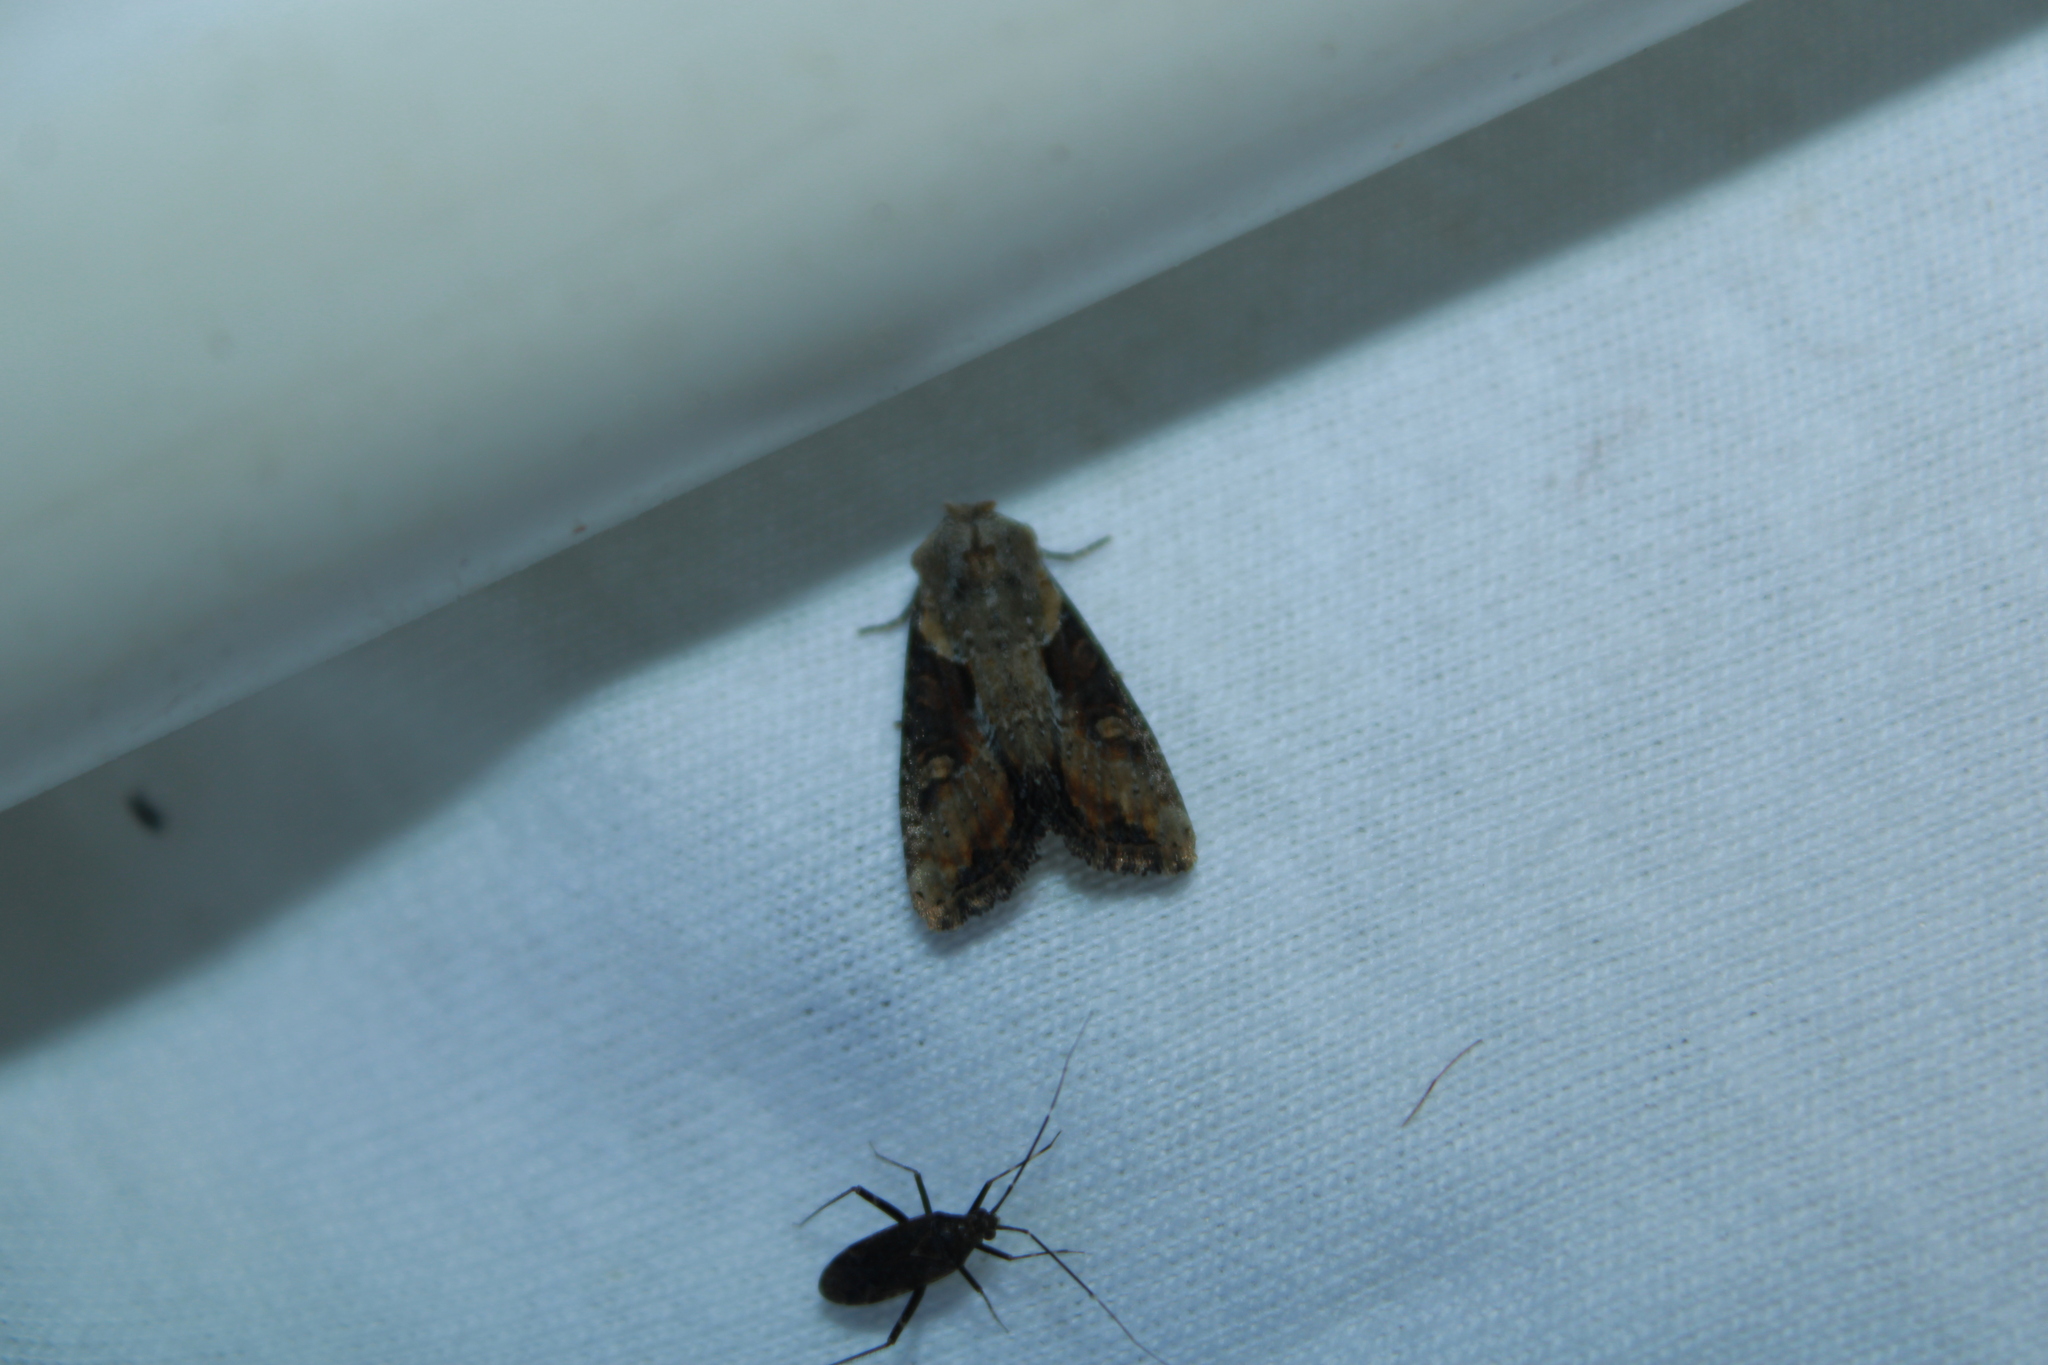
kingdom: Animalia
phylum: Arthropoda
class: Insecta
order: Lepidoptera
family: Noctuidae
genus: Lateroligia
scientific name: Lateroligia ophiogramma
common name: Double lobed
